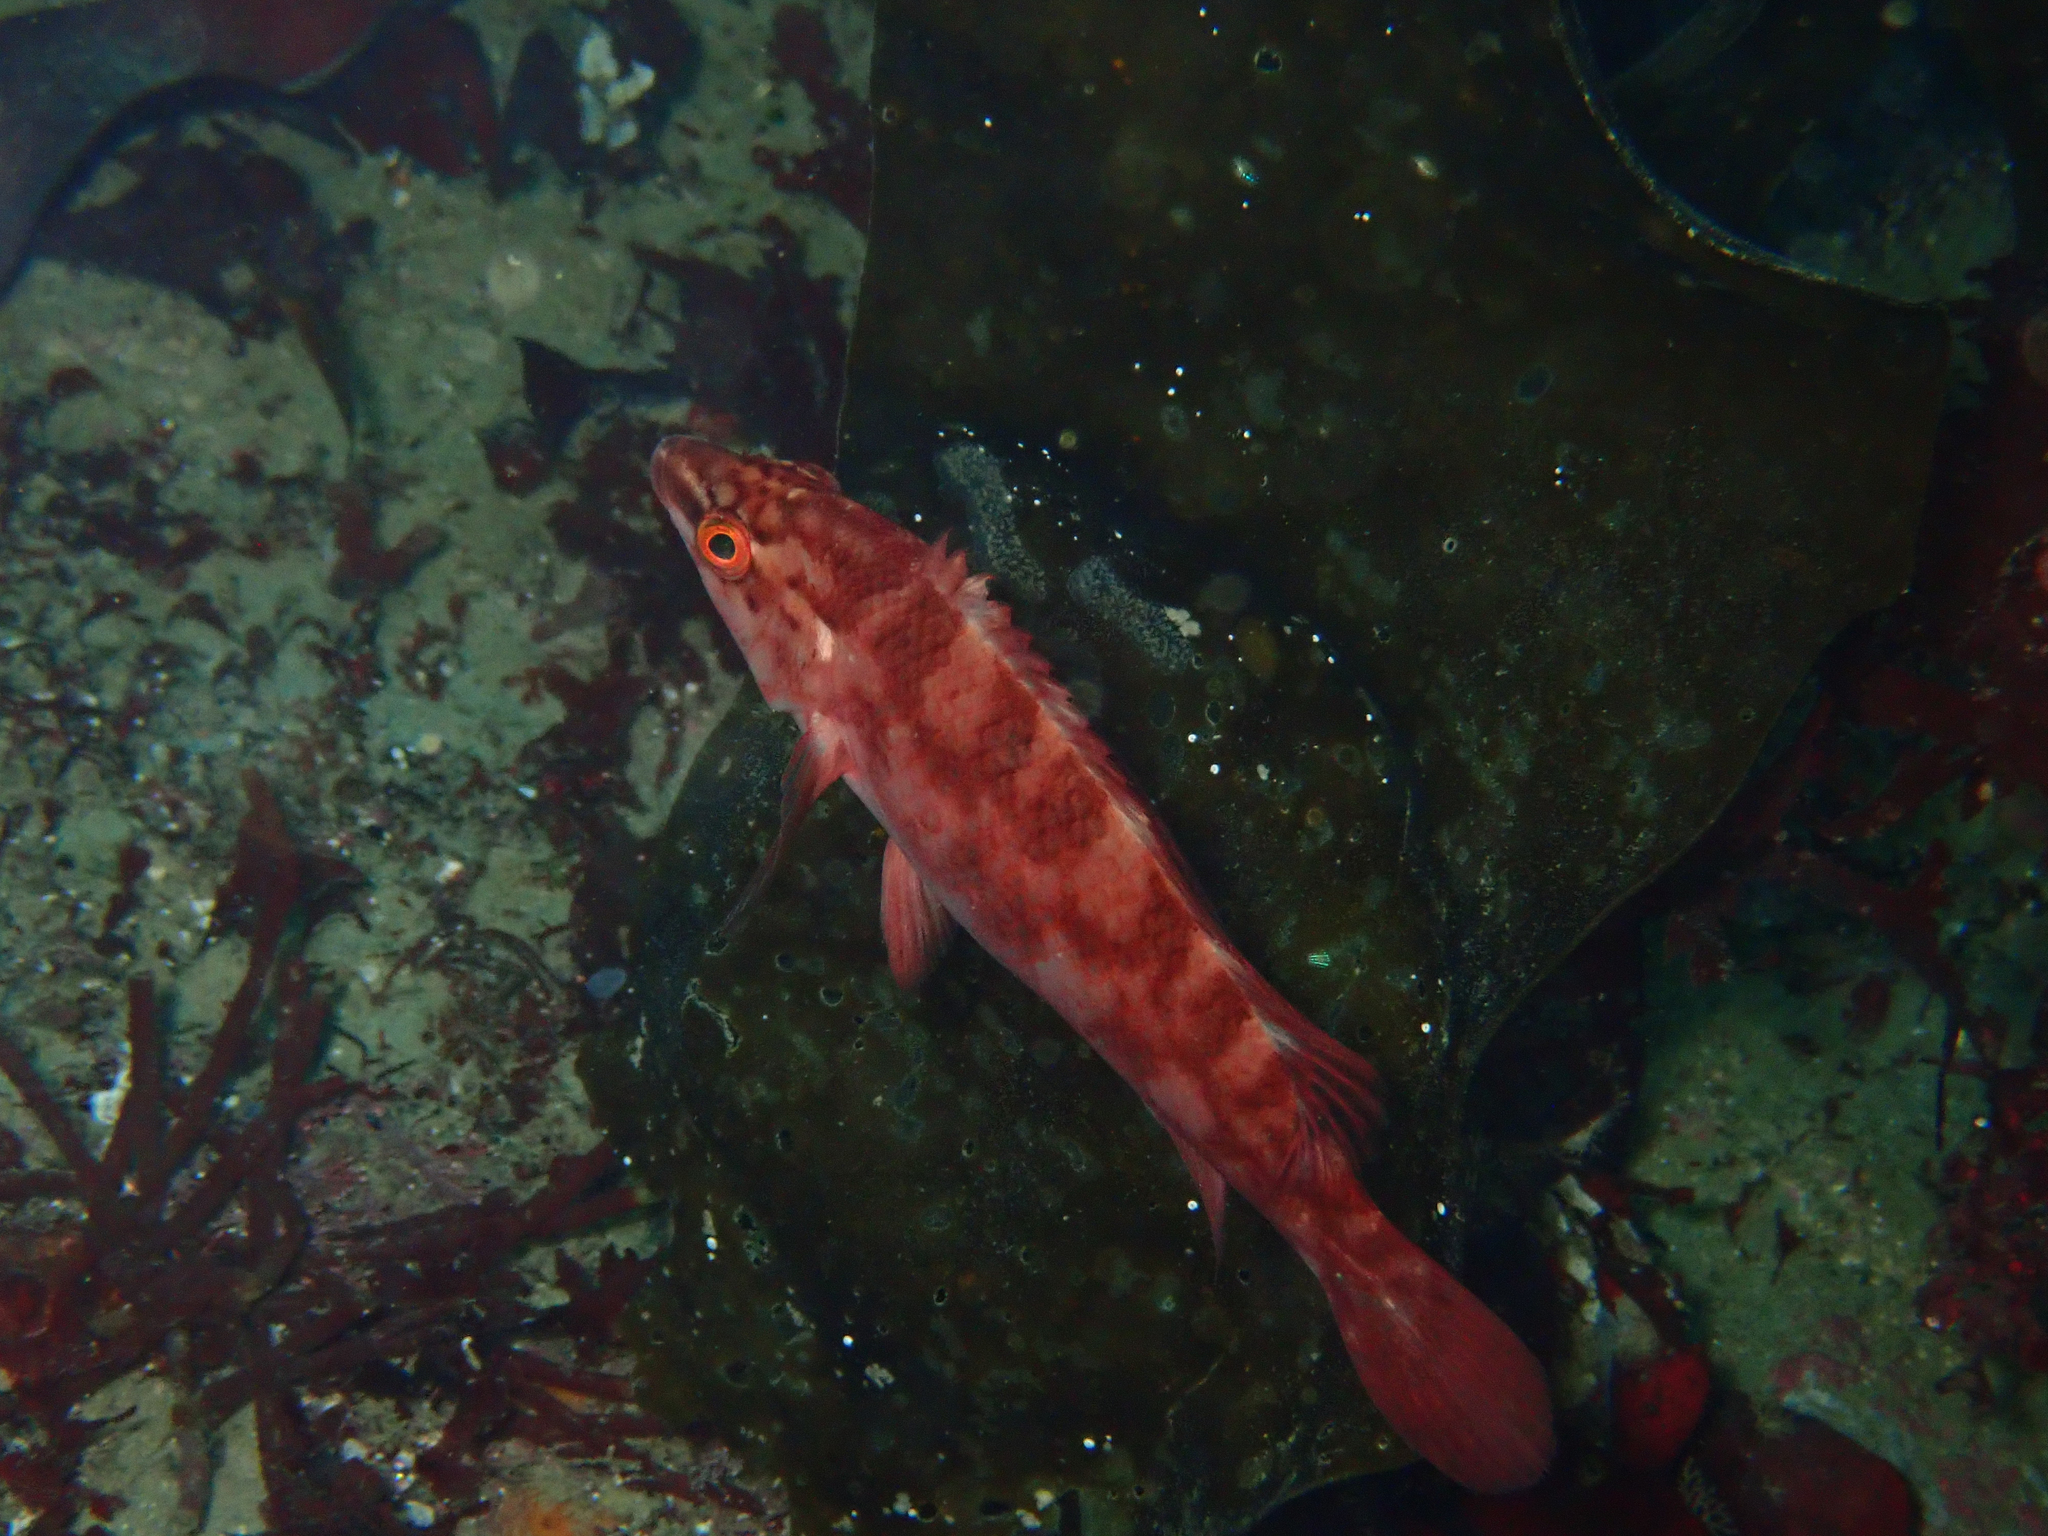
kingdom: Animalia
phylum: Chordata
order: Perciformes
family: Labridae
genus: Labrus
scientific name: Labrus bergylta
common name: Ballan wrasse
